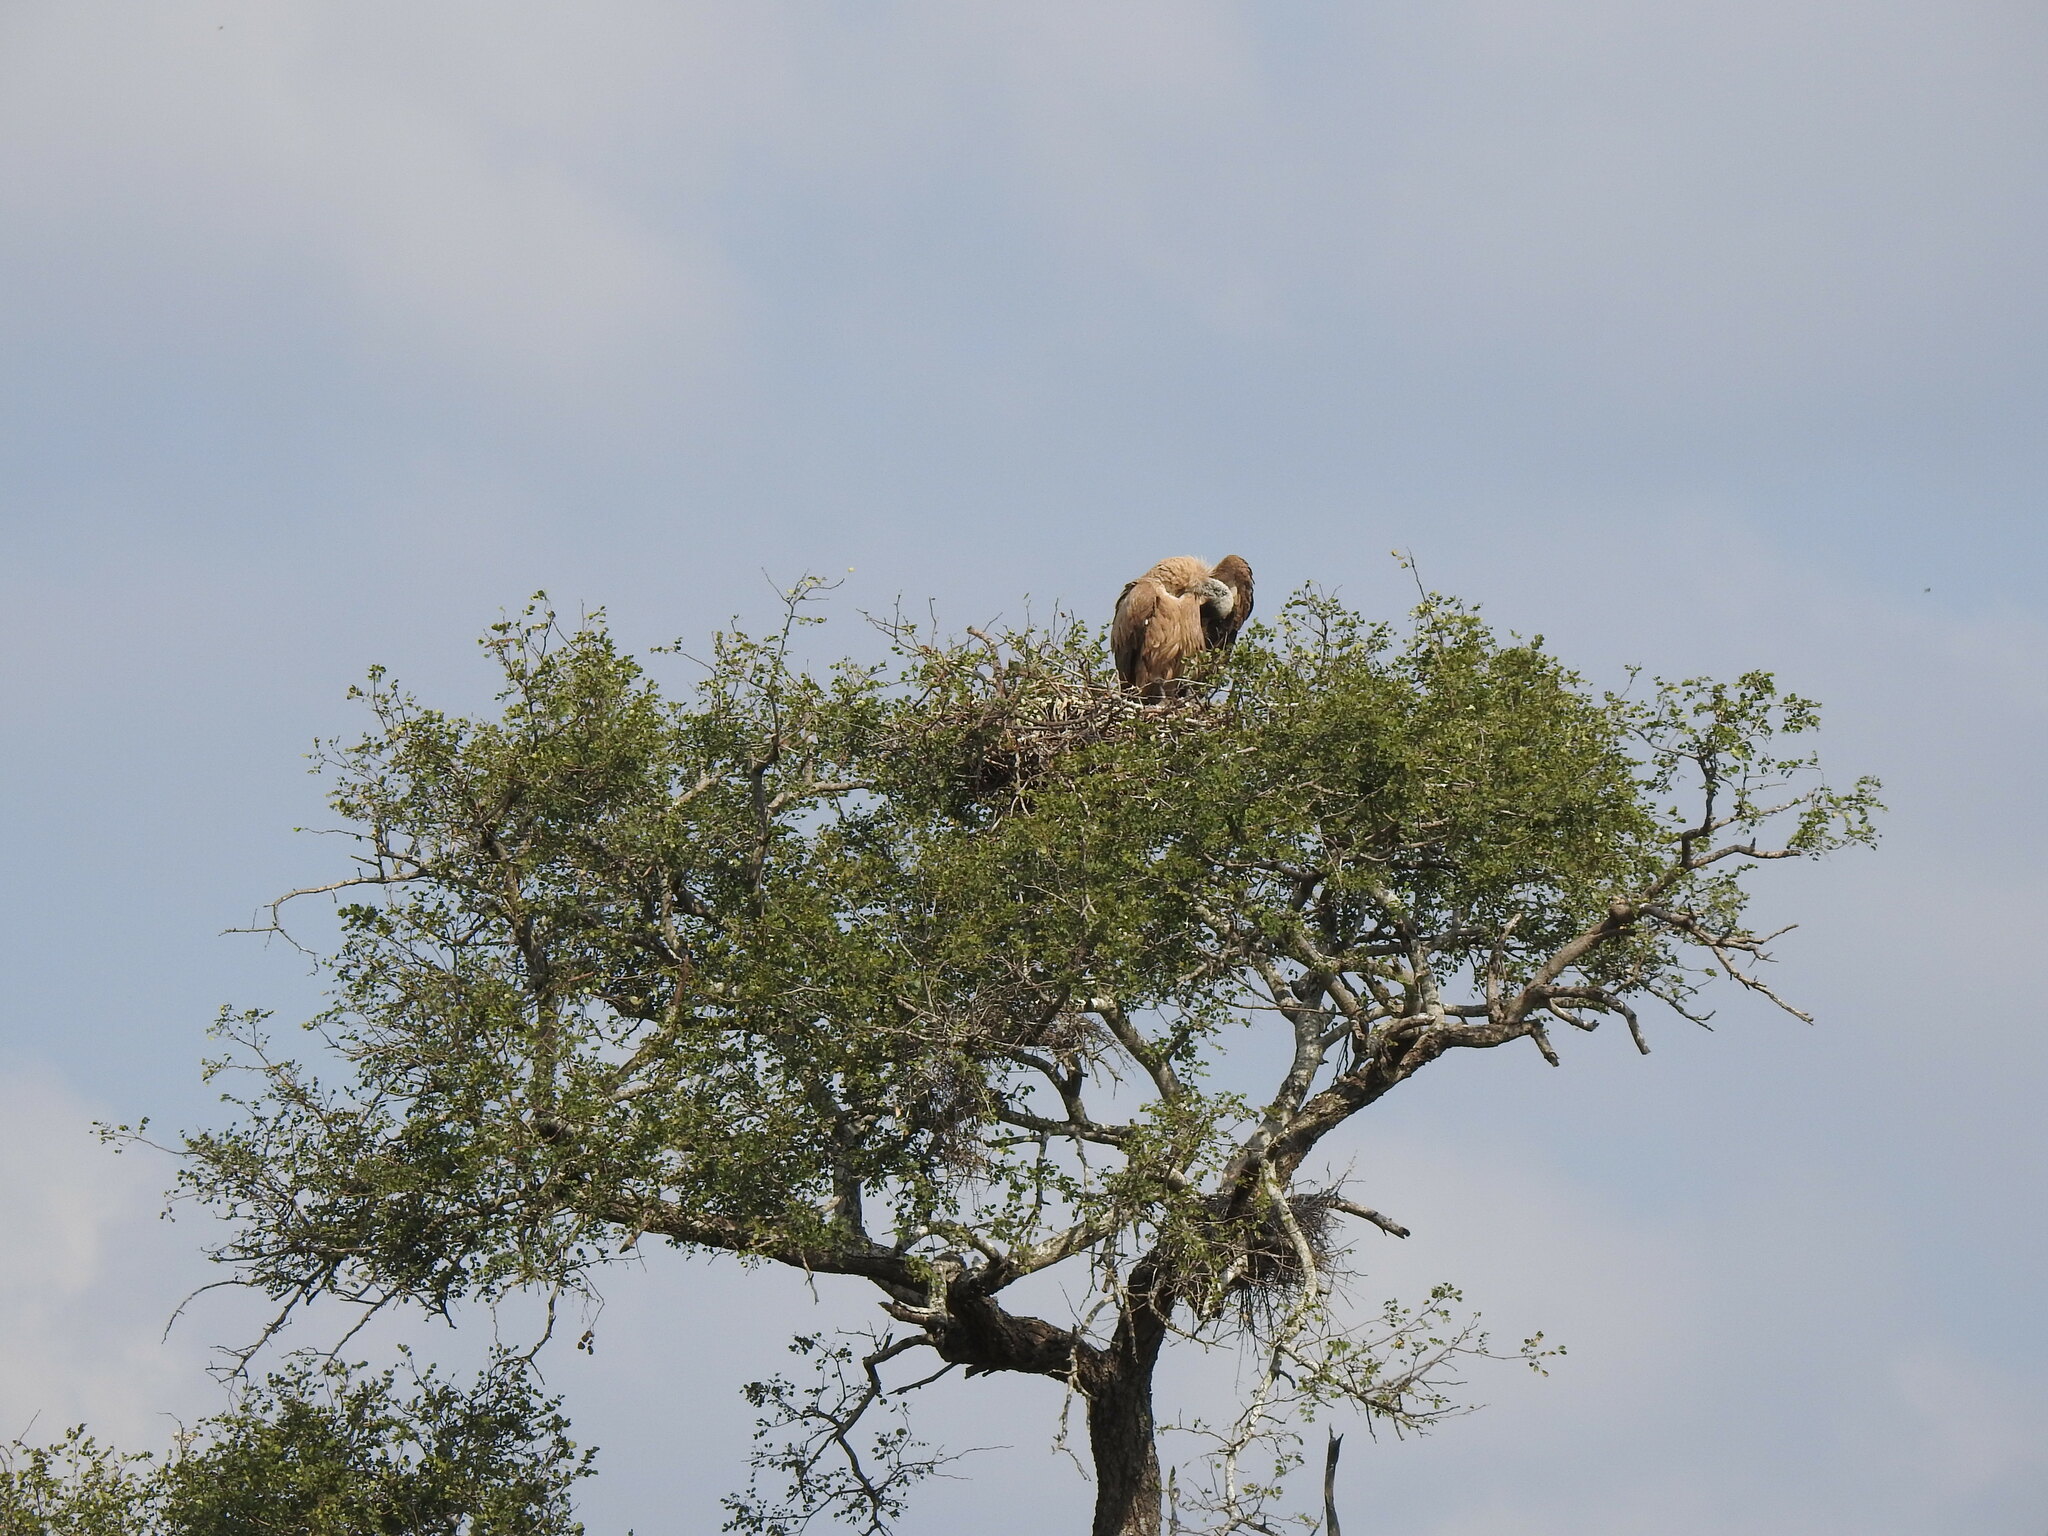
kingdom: Animalia
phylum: Chordata
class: Aves
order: Accipitriformes
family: Accipitridae
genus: Gyps
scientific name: Gyps africanus
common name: White-backed vulture
